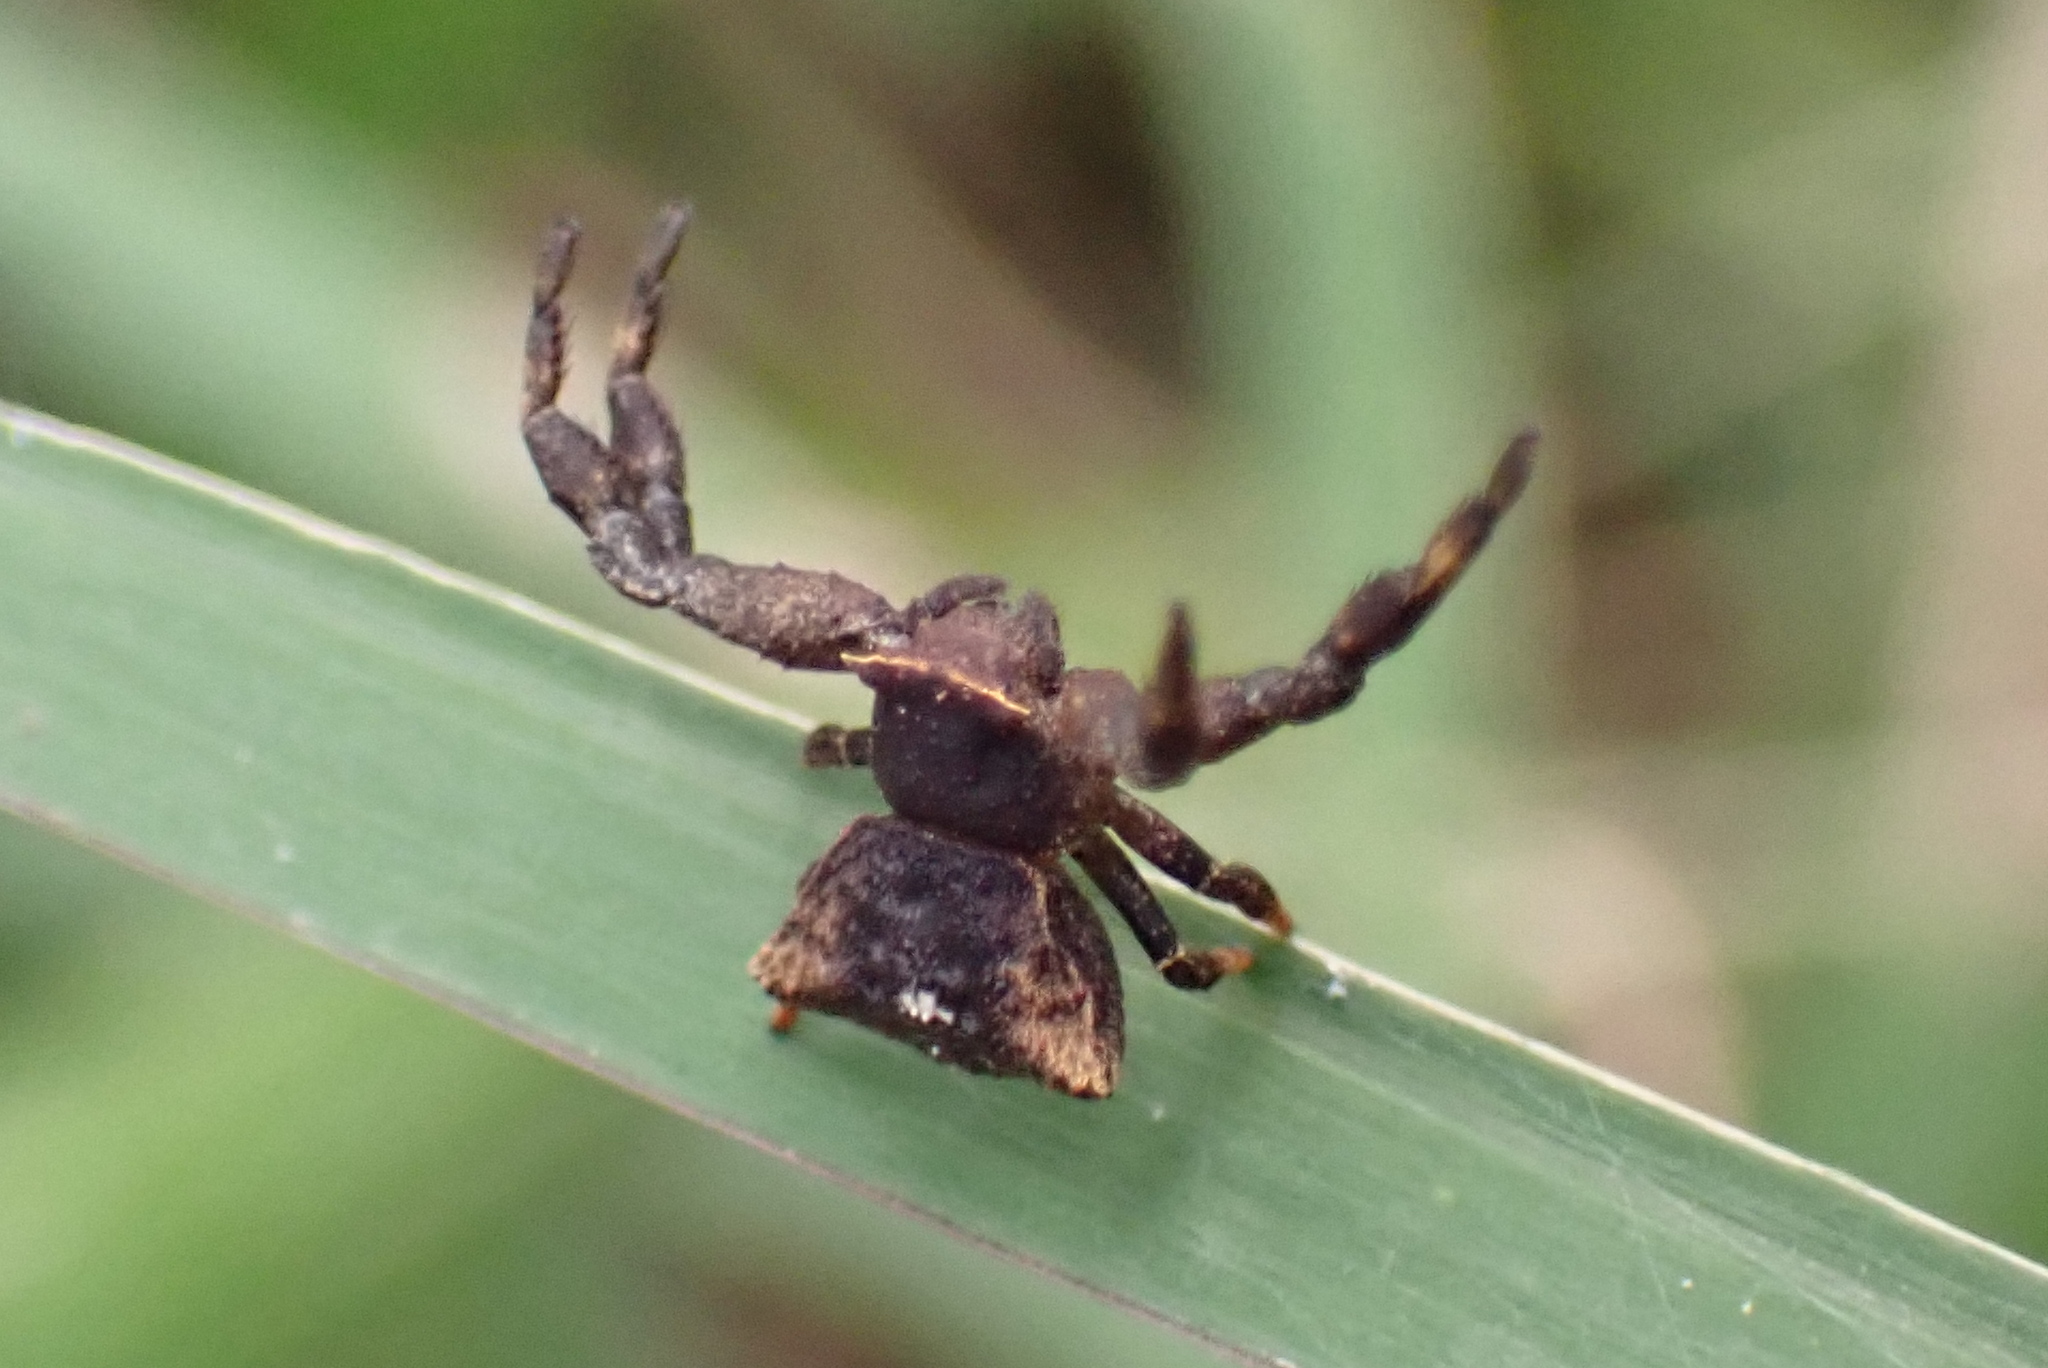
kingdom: Animalia
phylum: Arthropoda
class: Arachnida
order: Araneae
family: Thomisidae
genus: Thomisus
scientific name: Thomisus scrupeus
